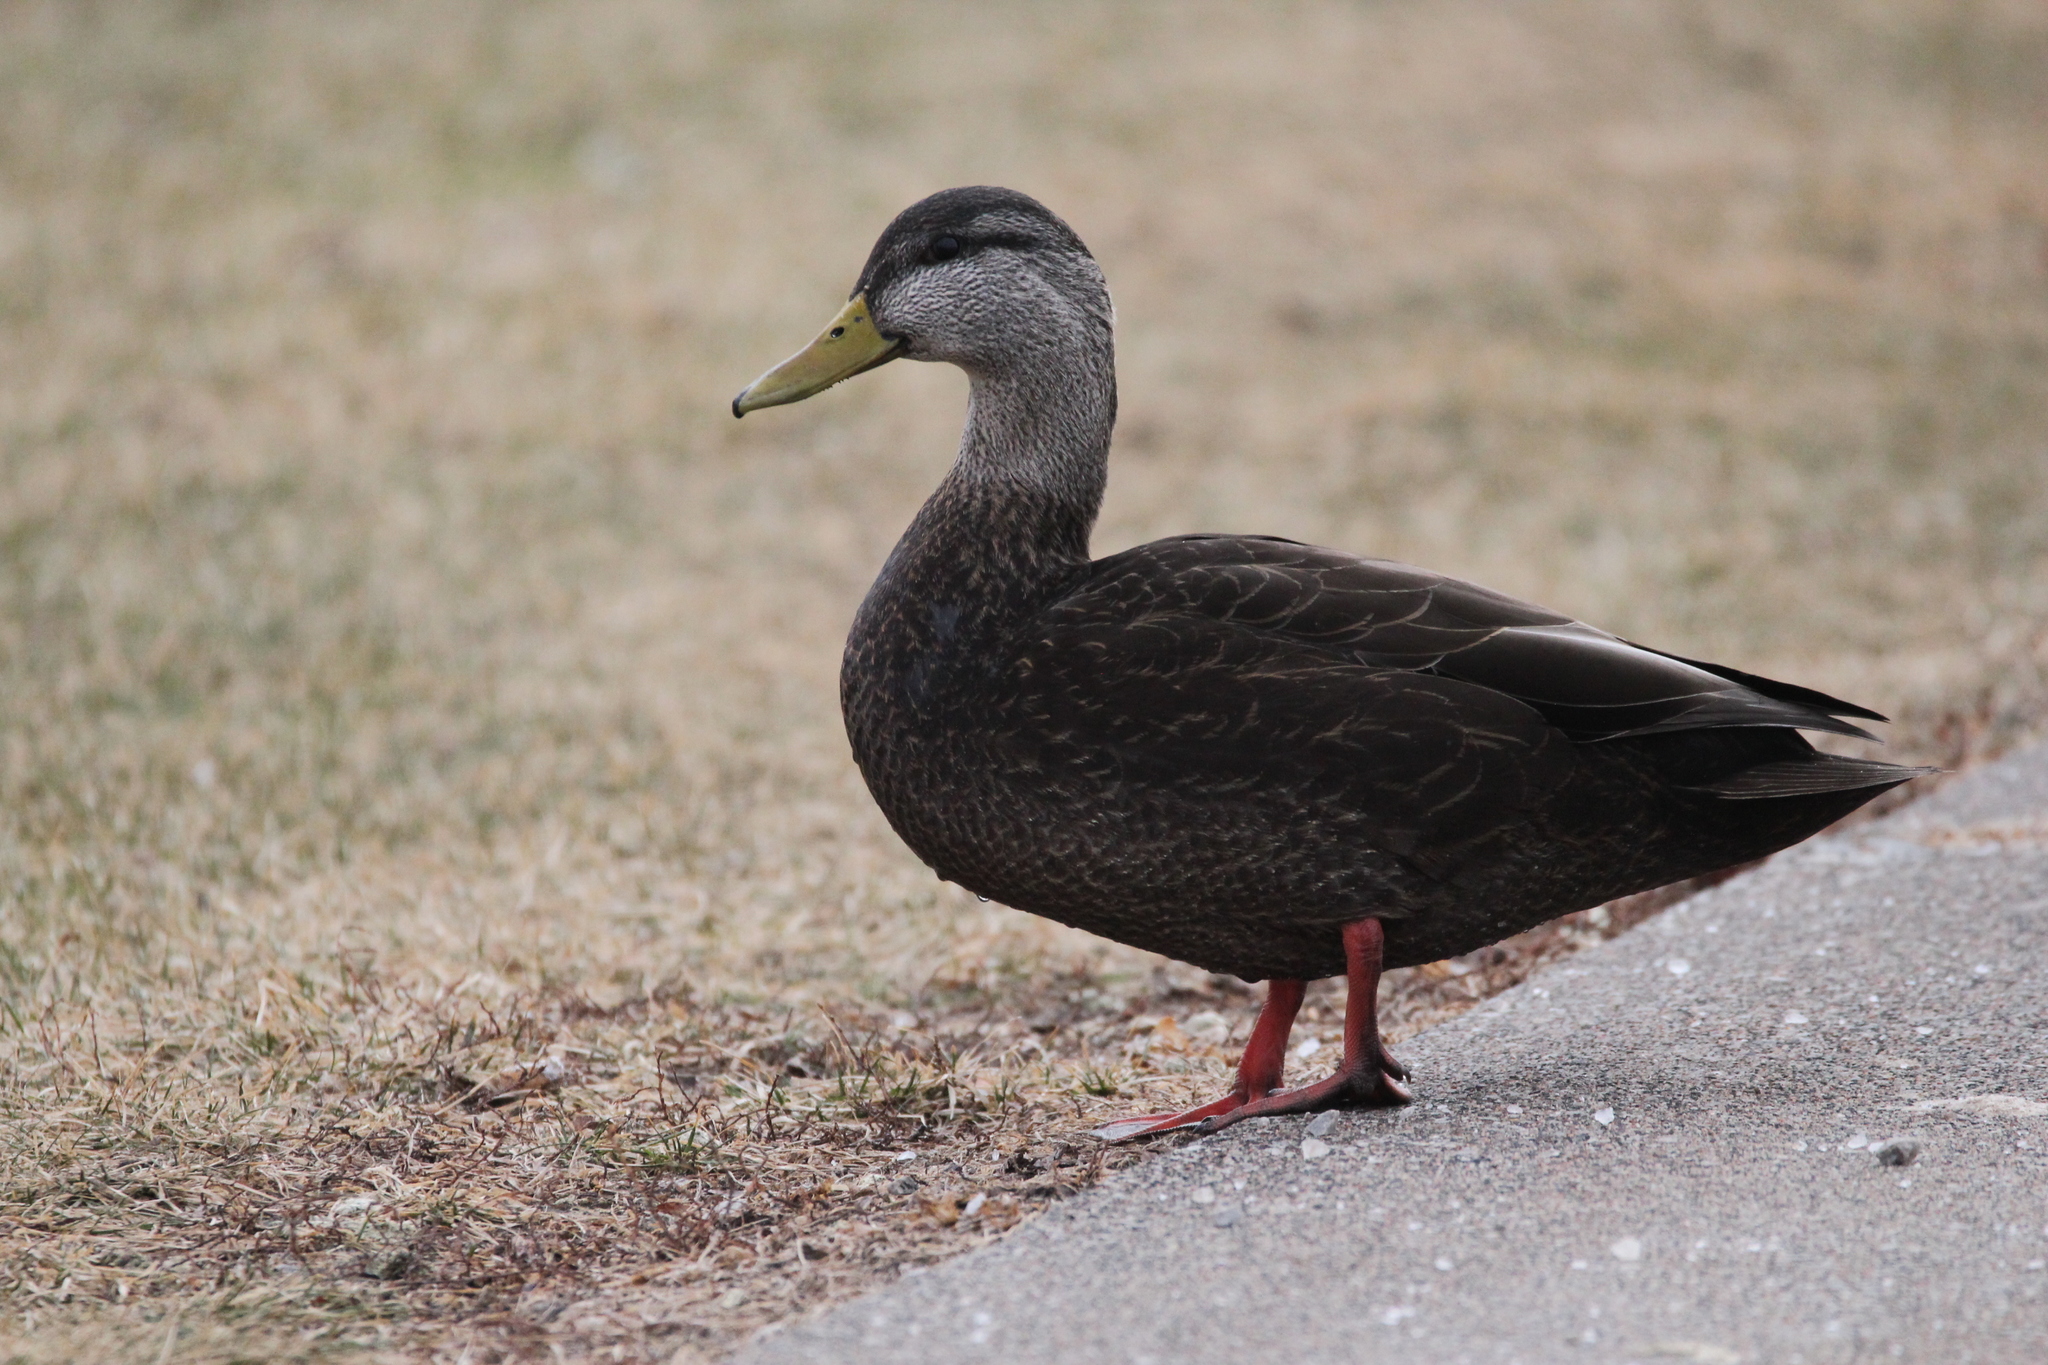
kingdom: Animalia
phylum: Chordata
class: Aves
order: Anseriformes
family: Anatidae
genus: Anas
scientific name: Anas rubripes
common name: American black duck
